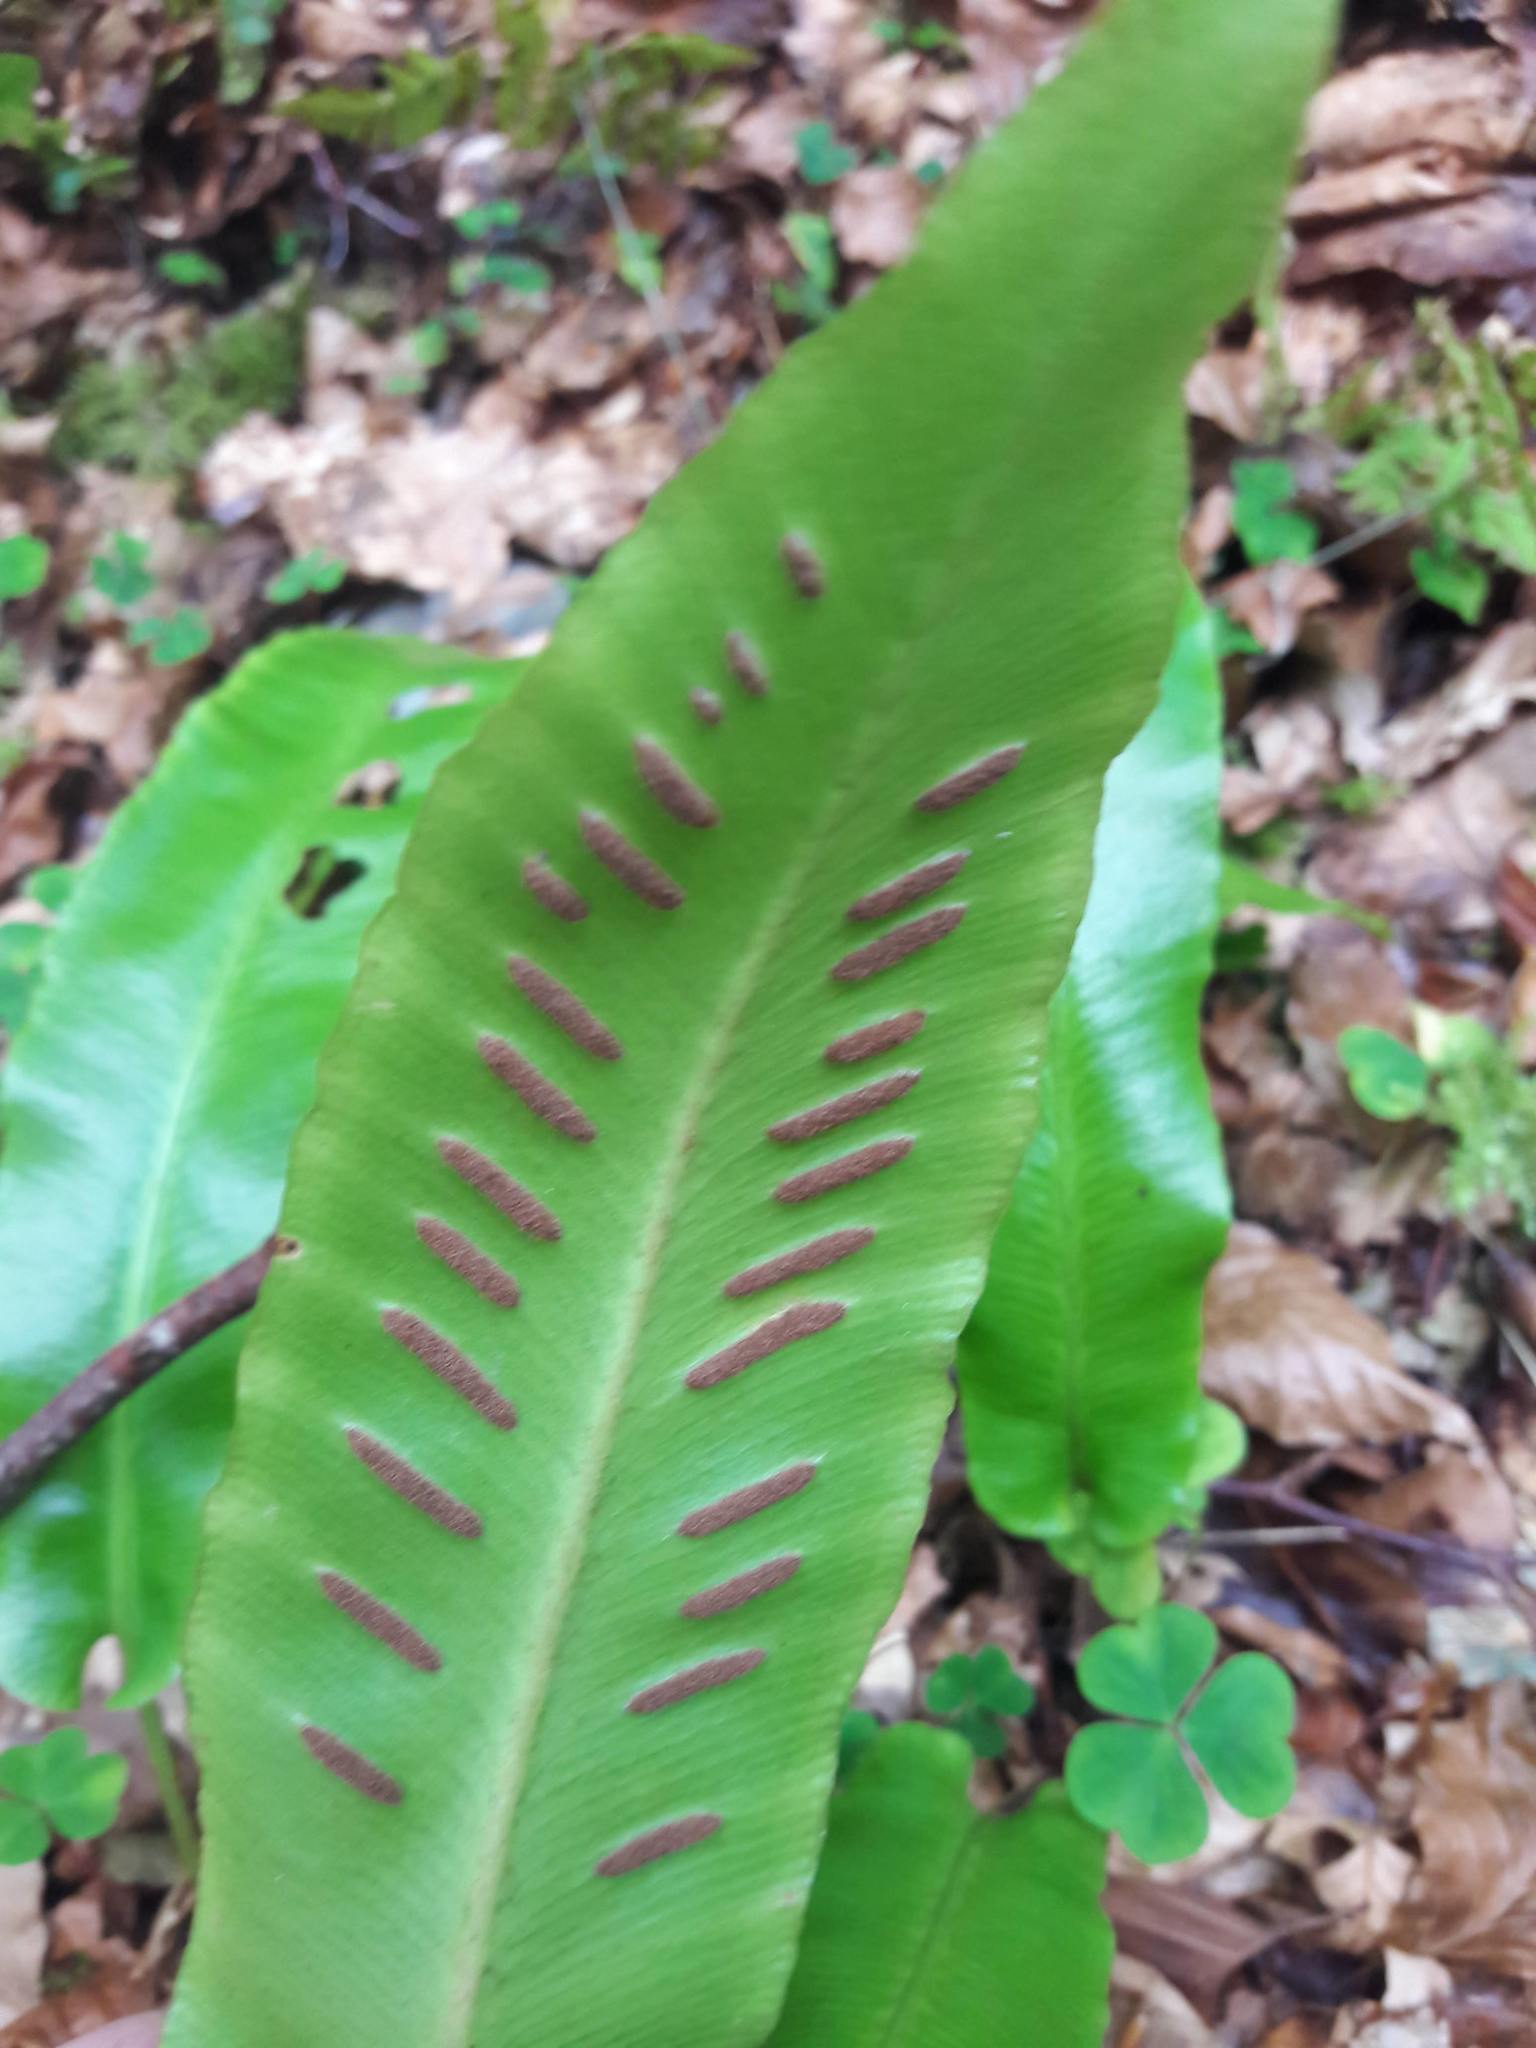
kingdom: Plantae
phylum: Tracheophyta
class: Polypodiopsida
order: Polypodiales
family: Aspleniaceae
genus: Asplenium
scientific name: Asplenium scolopendrium
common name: Hart's-tongue fern
